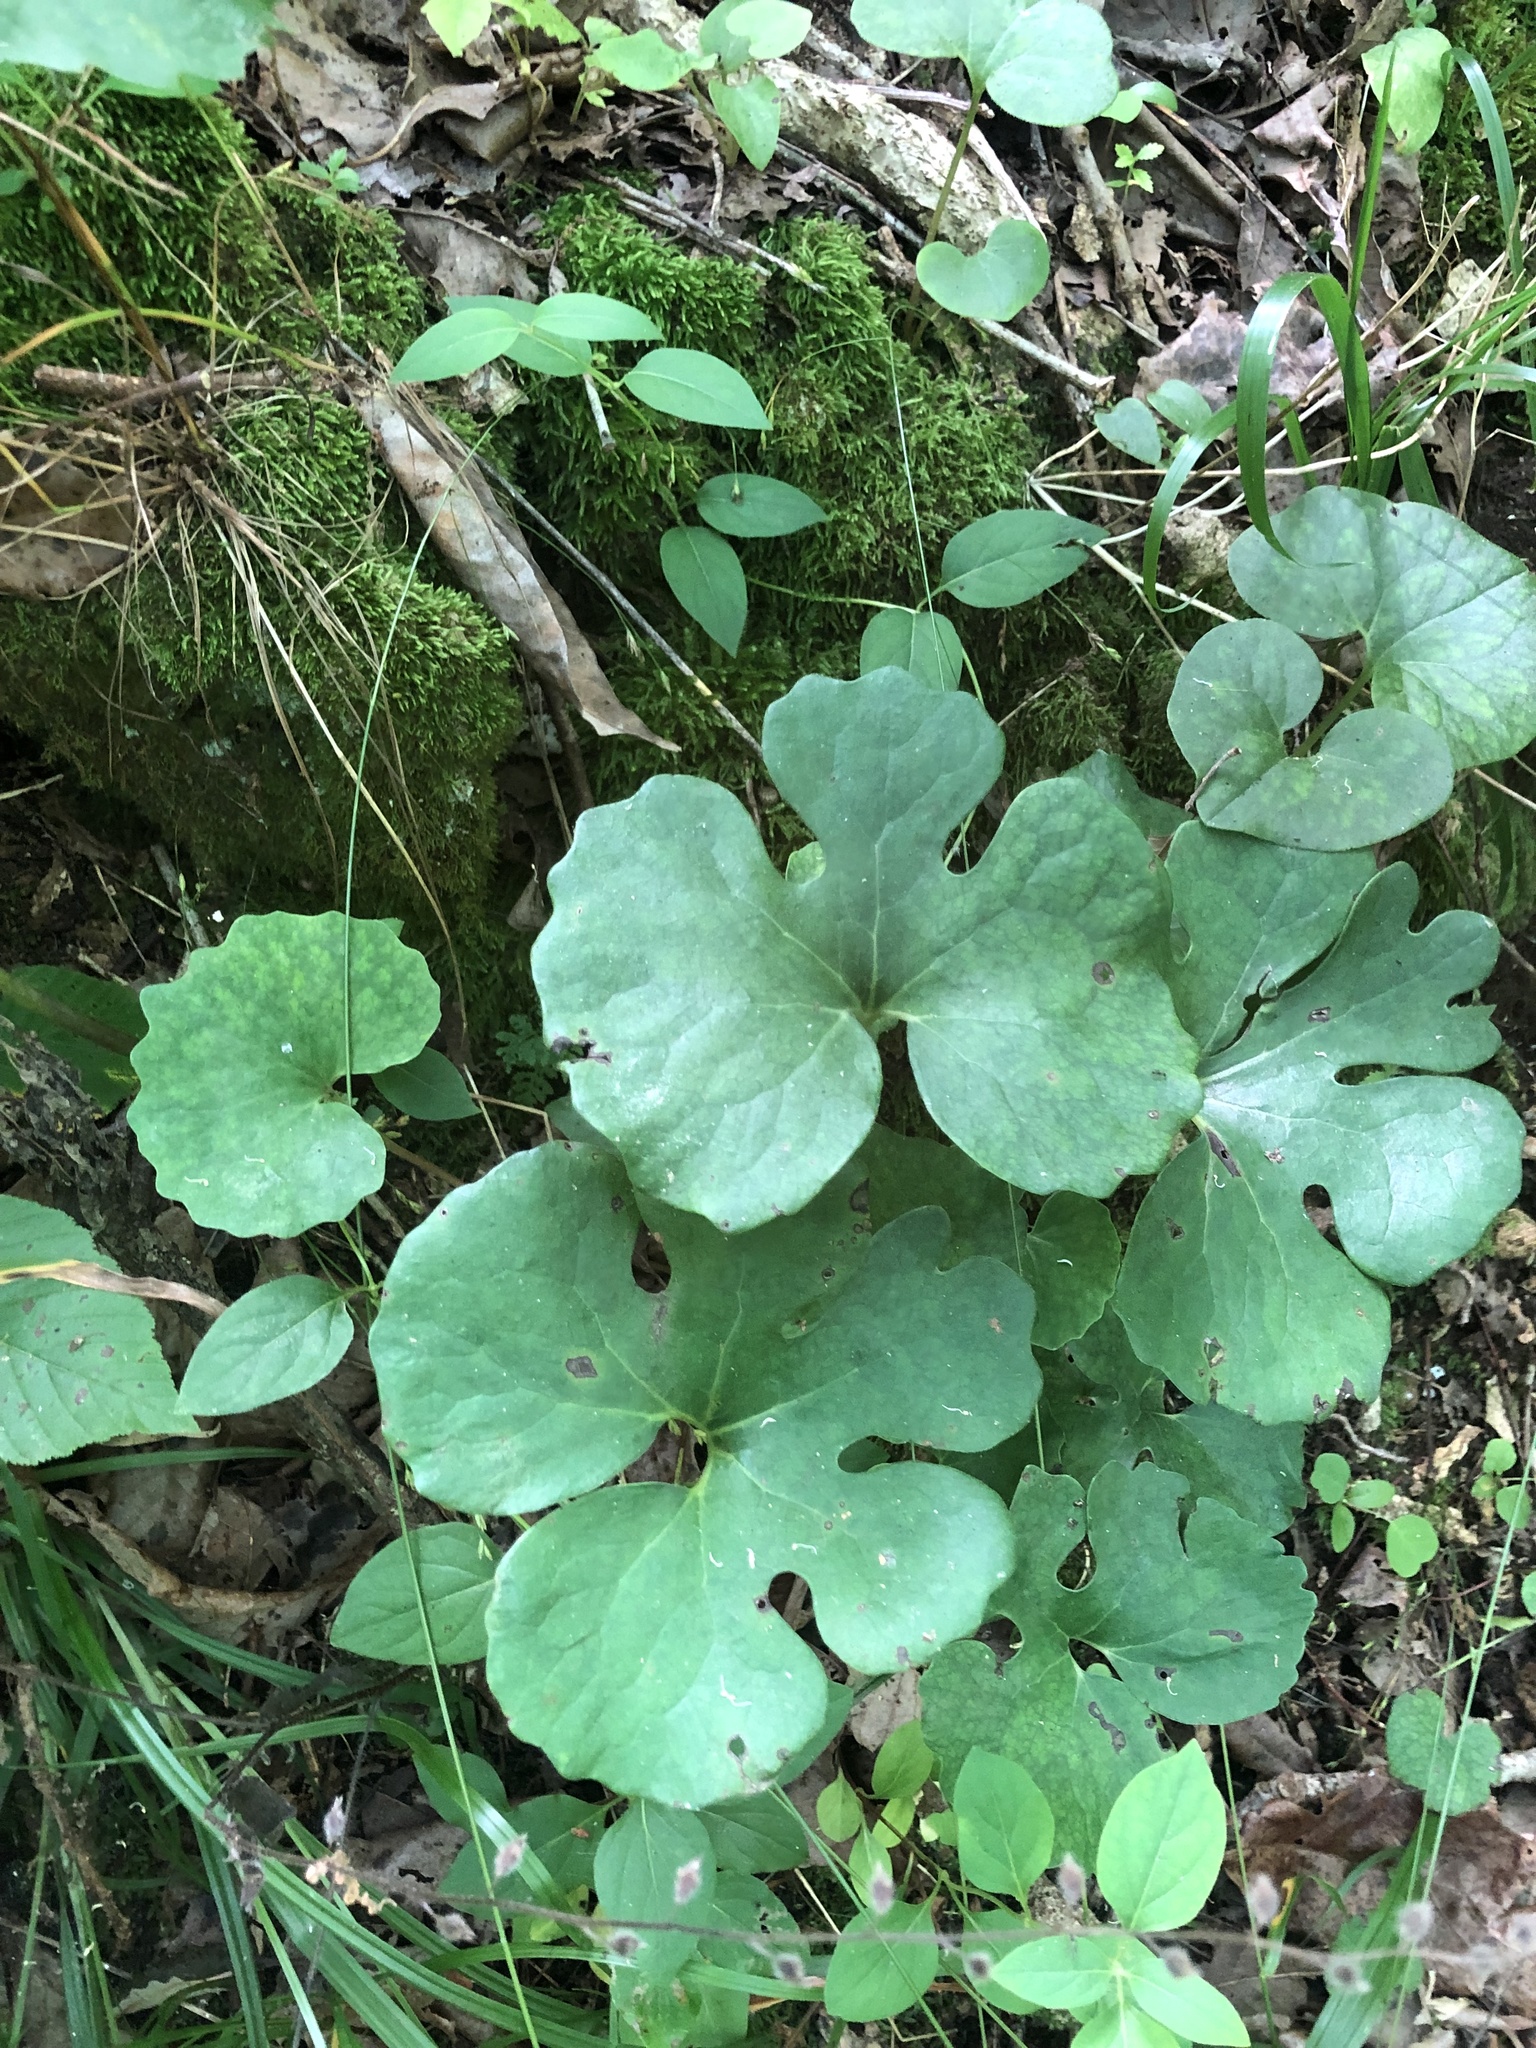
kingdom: Plantae
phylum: Tracheophyta
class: Magnoliopsida
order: Ranunculales
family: Papaveraceae
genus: Sanguinaria
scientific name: Sanguinaria canadensis
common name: Bloodroot
